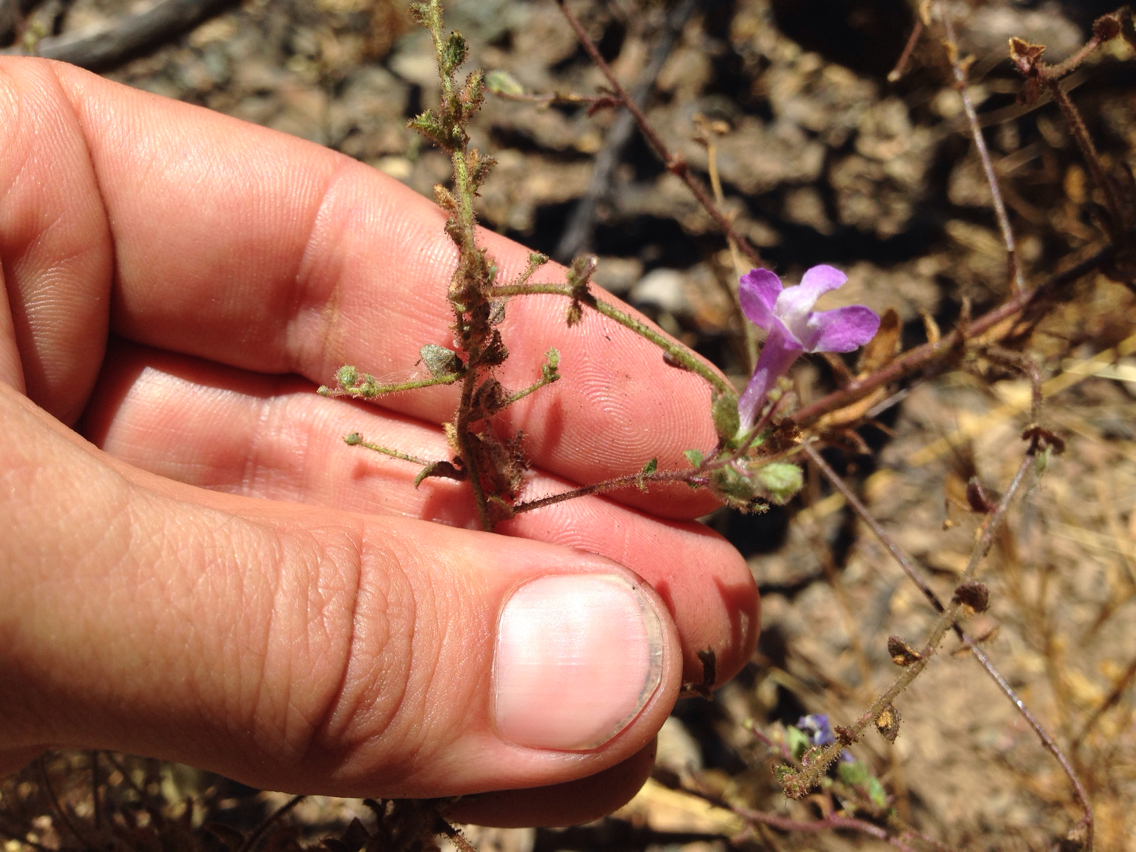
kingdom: Plantae
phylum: Tracheophyta
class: Magnoliopsida
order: Lamiales
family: Plantaginaceae
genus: Sairocarpus
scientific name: Sairocarpus vexillocalyculatus
